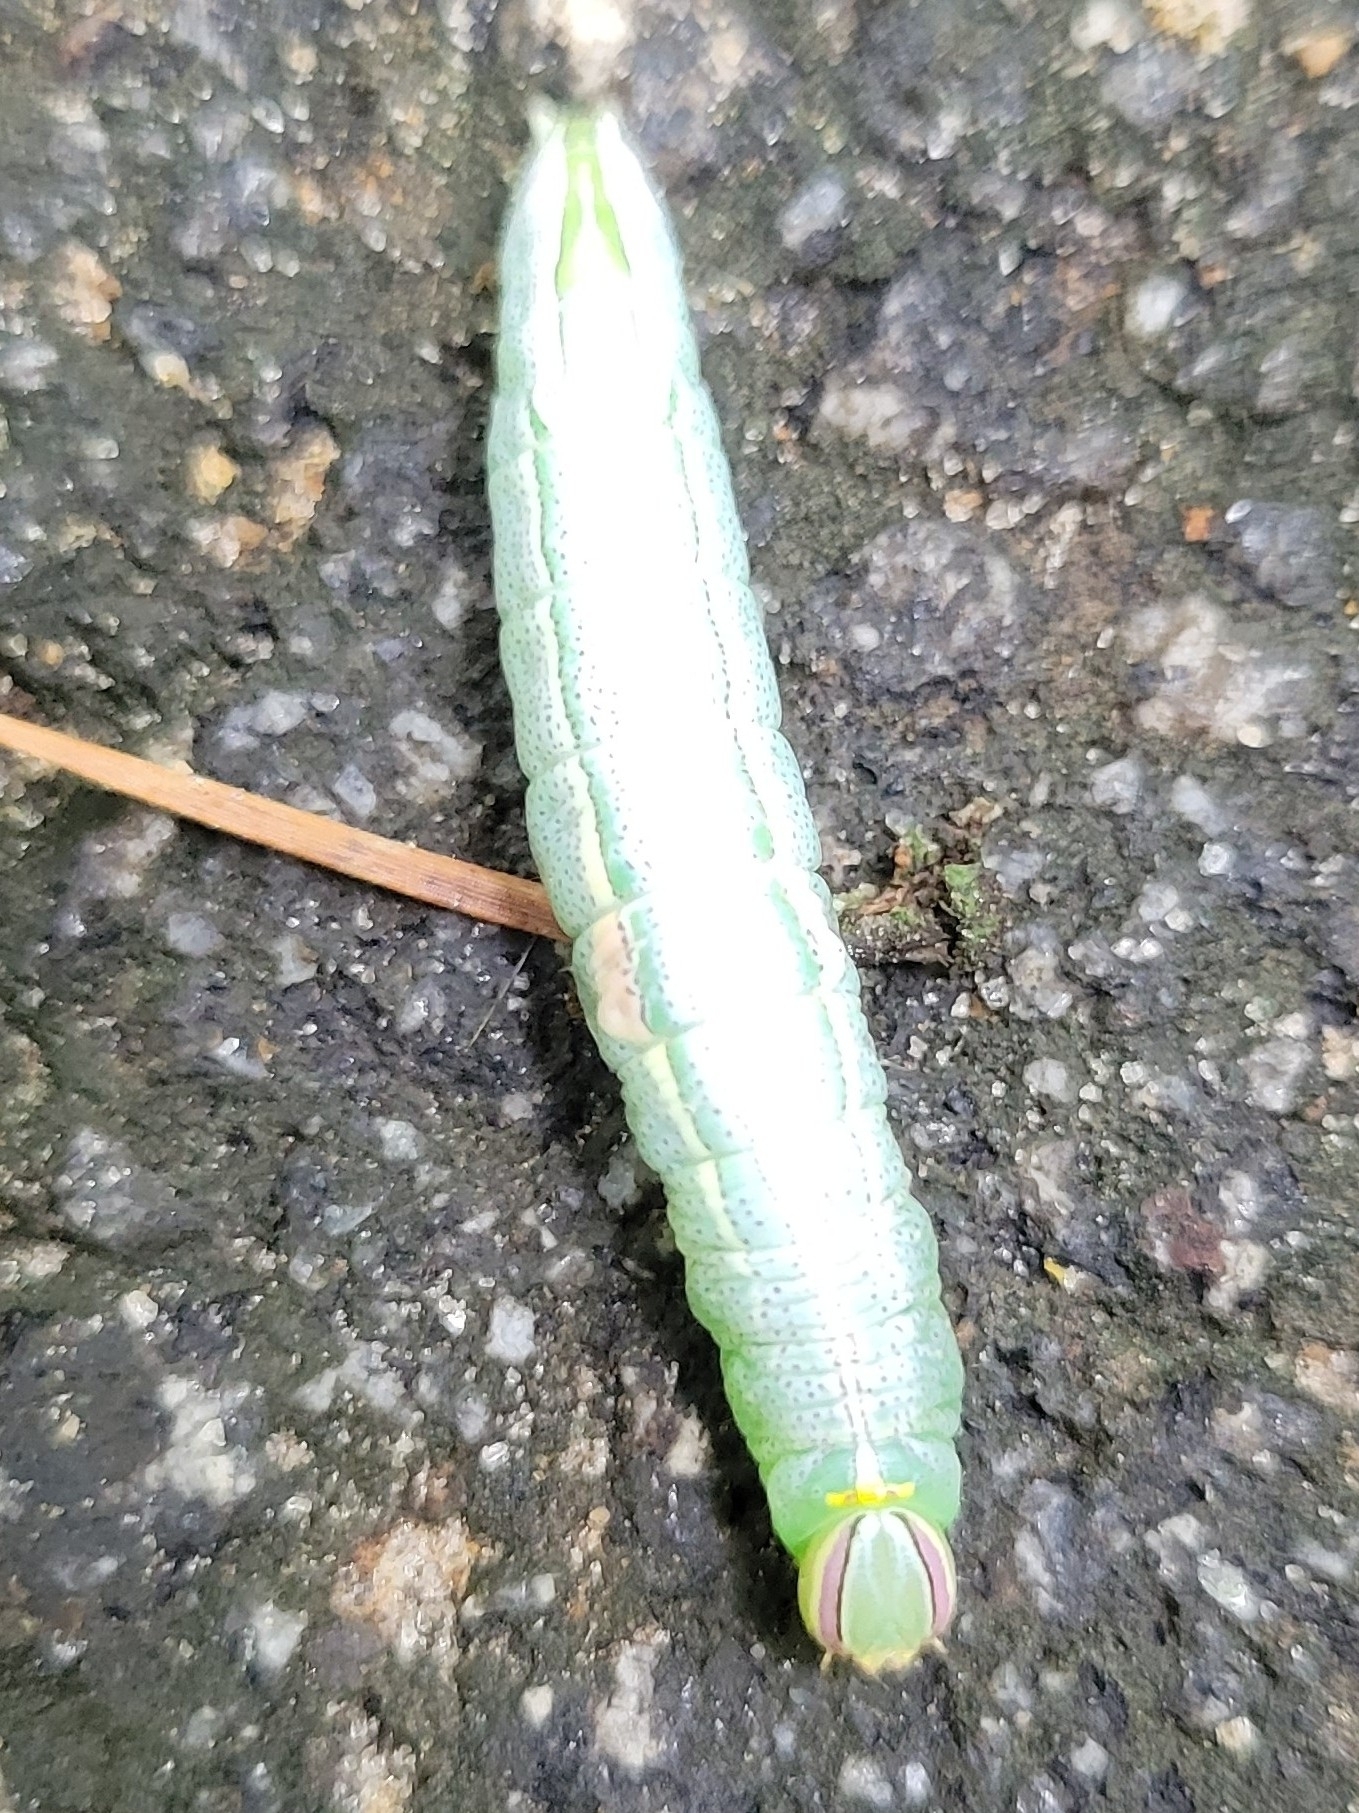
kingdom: Animalia
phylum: Arthropoda
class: Insecta
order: Lepidoptera
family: Notodontidae
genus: Disphragis
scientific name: Disphragis Cecrita guttivitta
